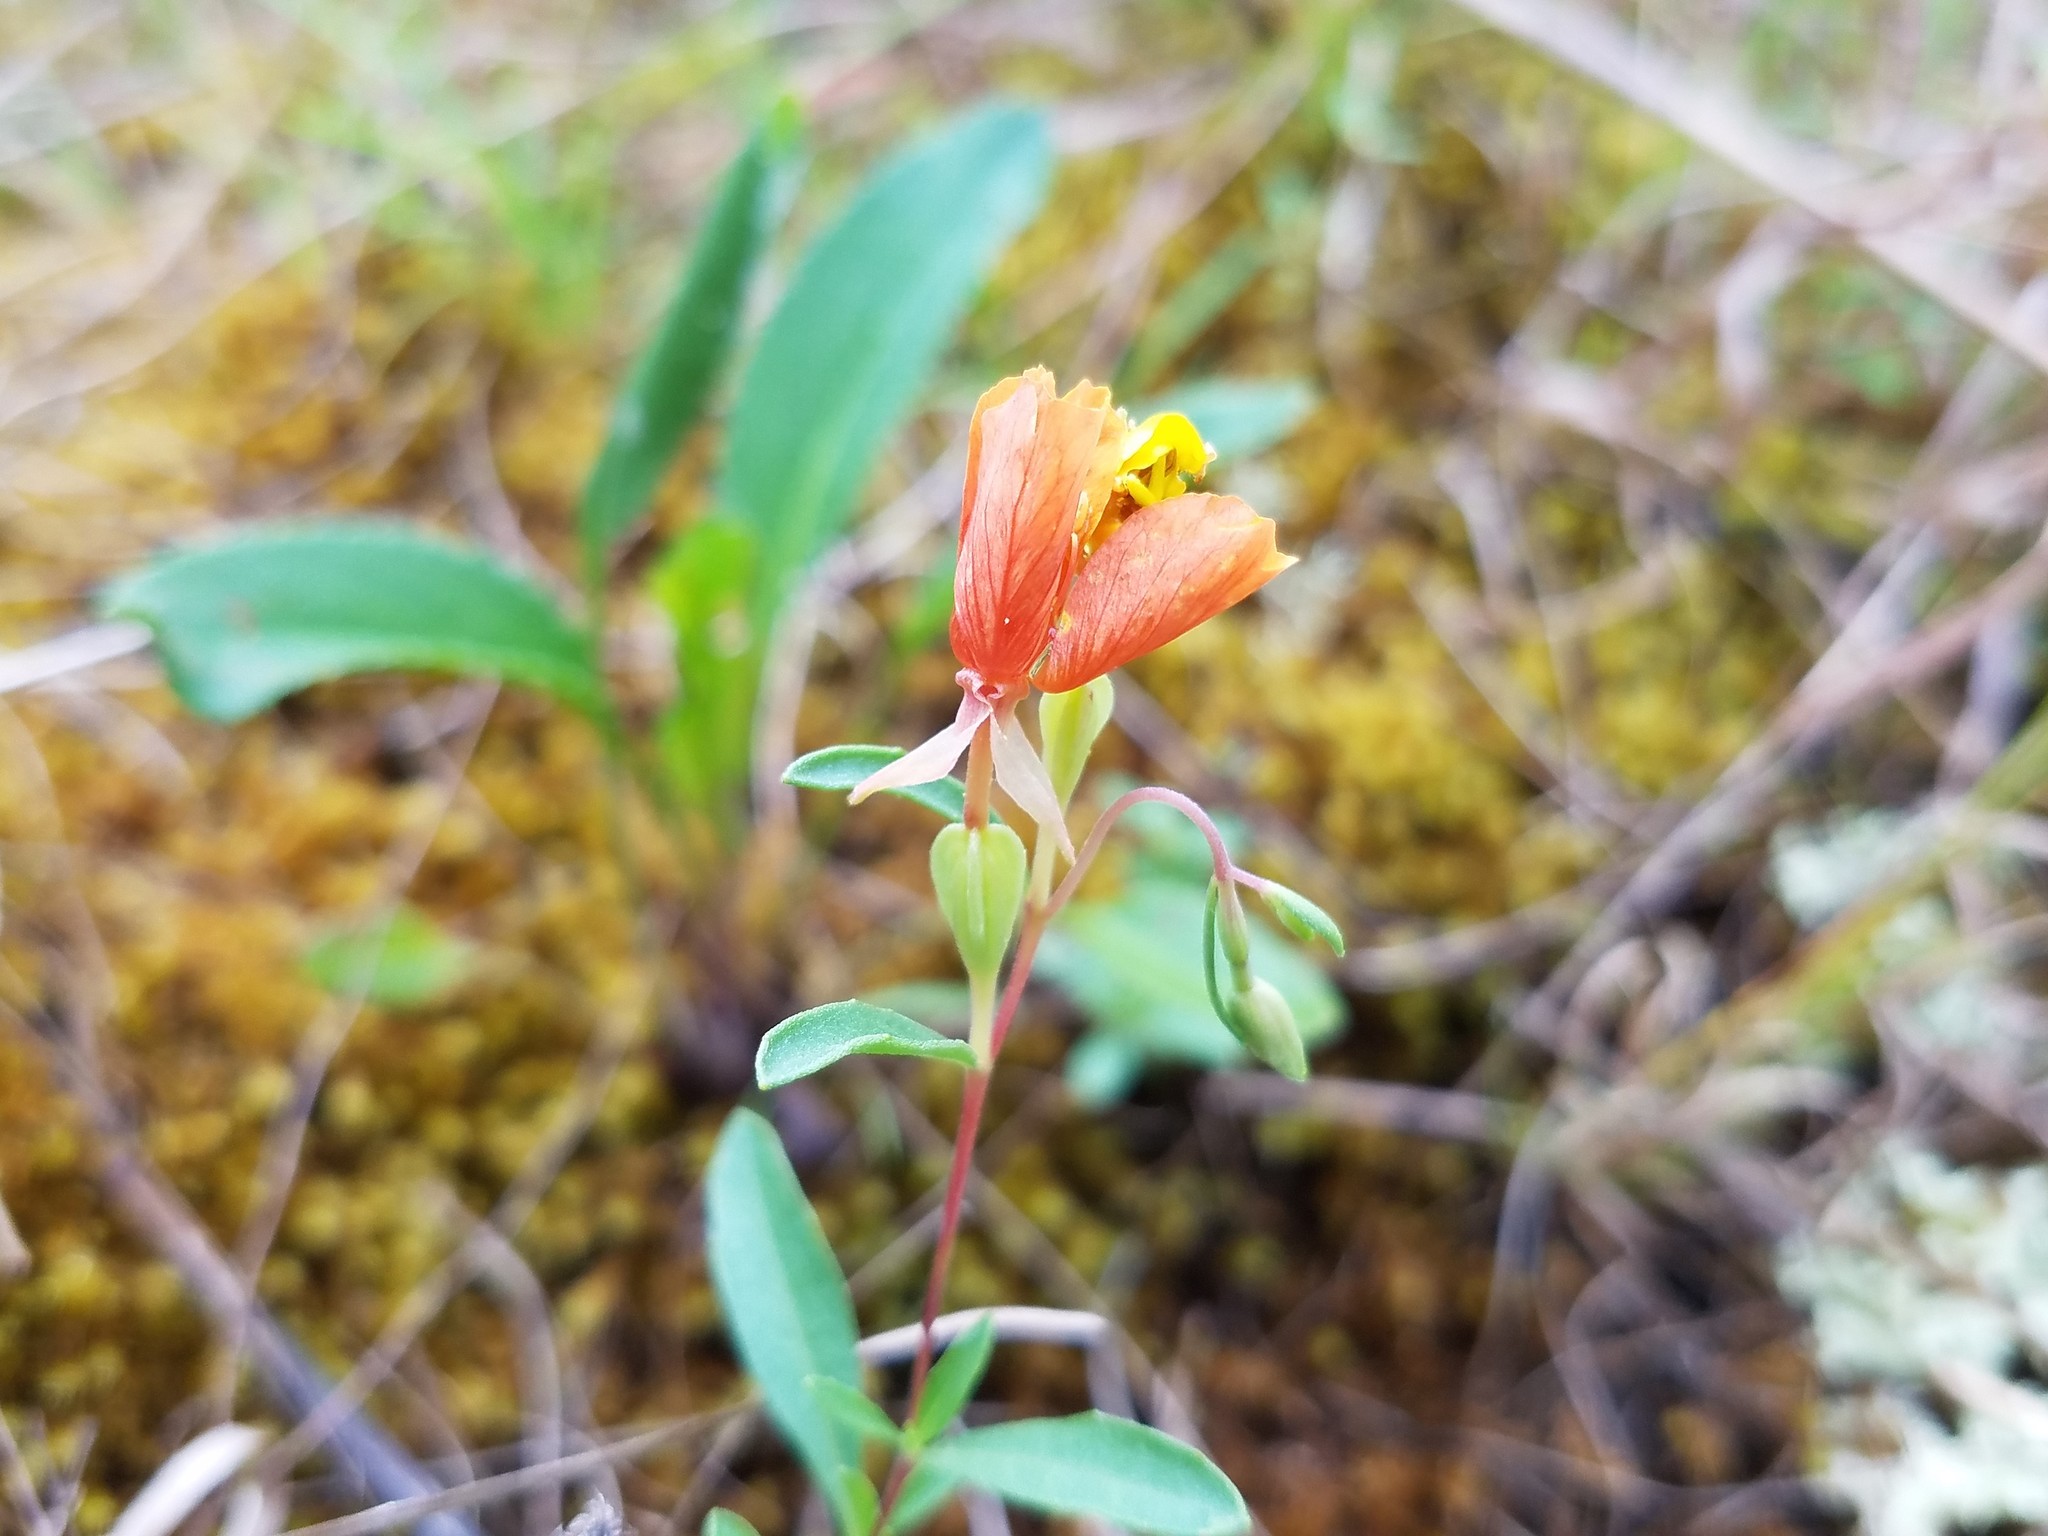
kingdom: Plantae
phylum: Tracheophyta
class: Magnoliopsida
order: Myrtales
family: Onagraceae
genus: Oenothera
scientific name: Oenothera fruticosa
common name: Southern sundrops
